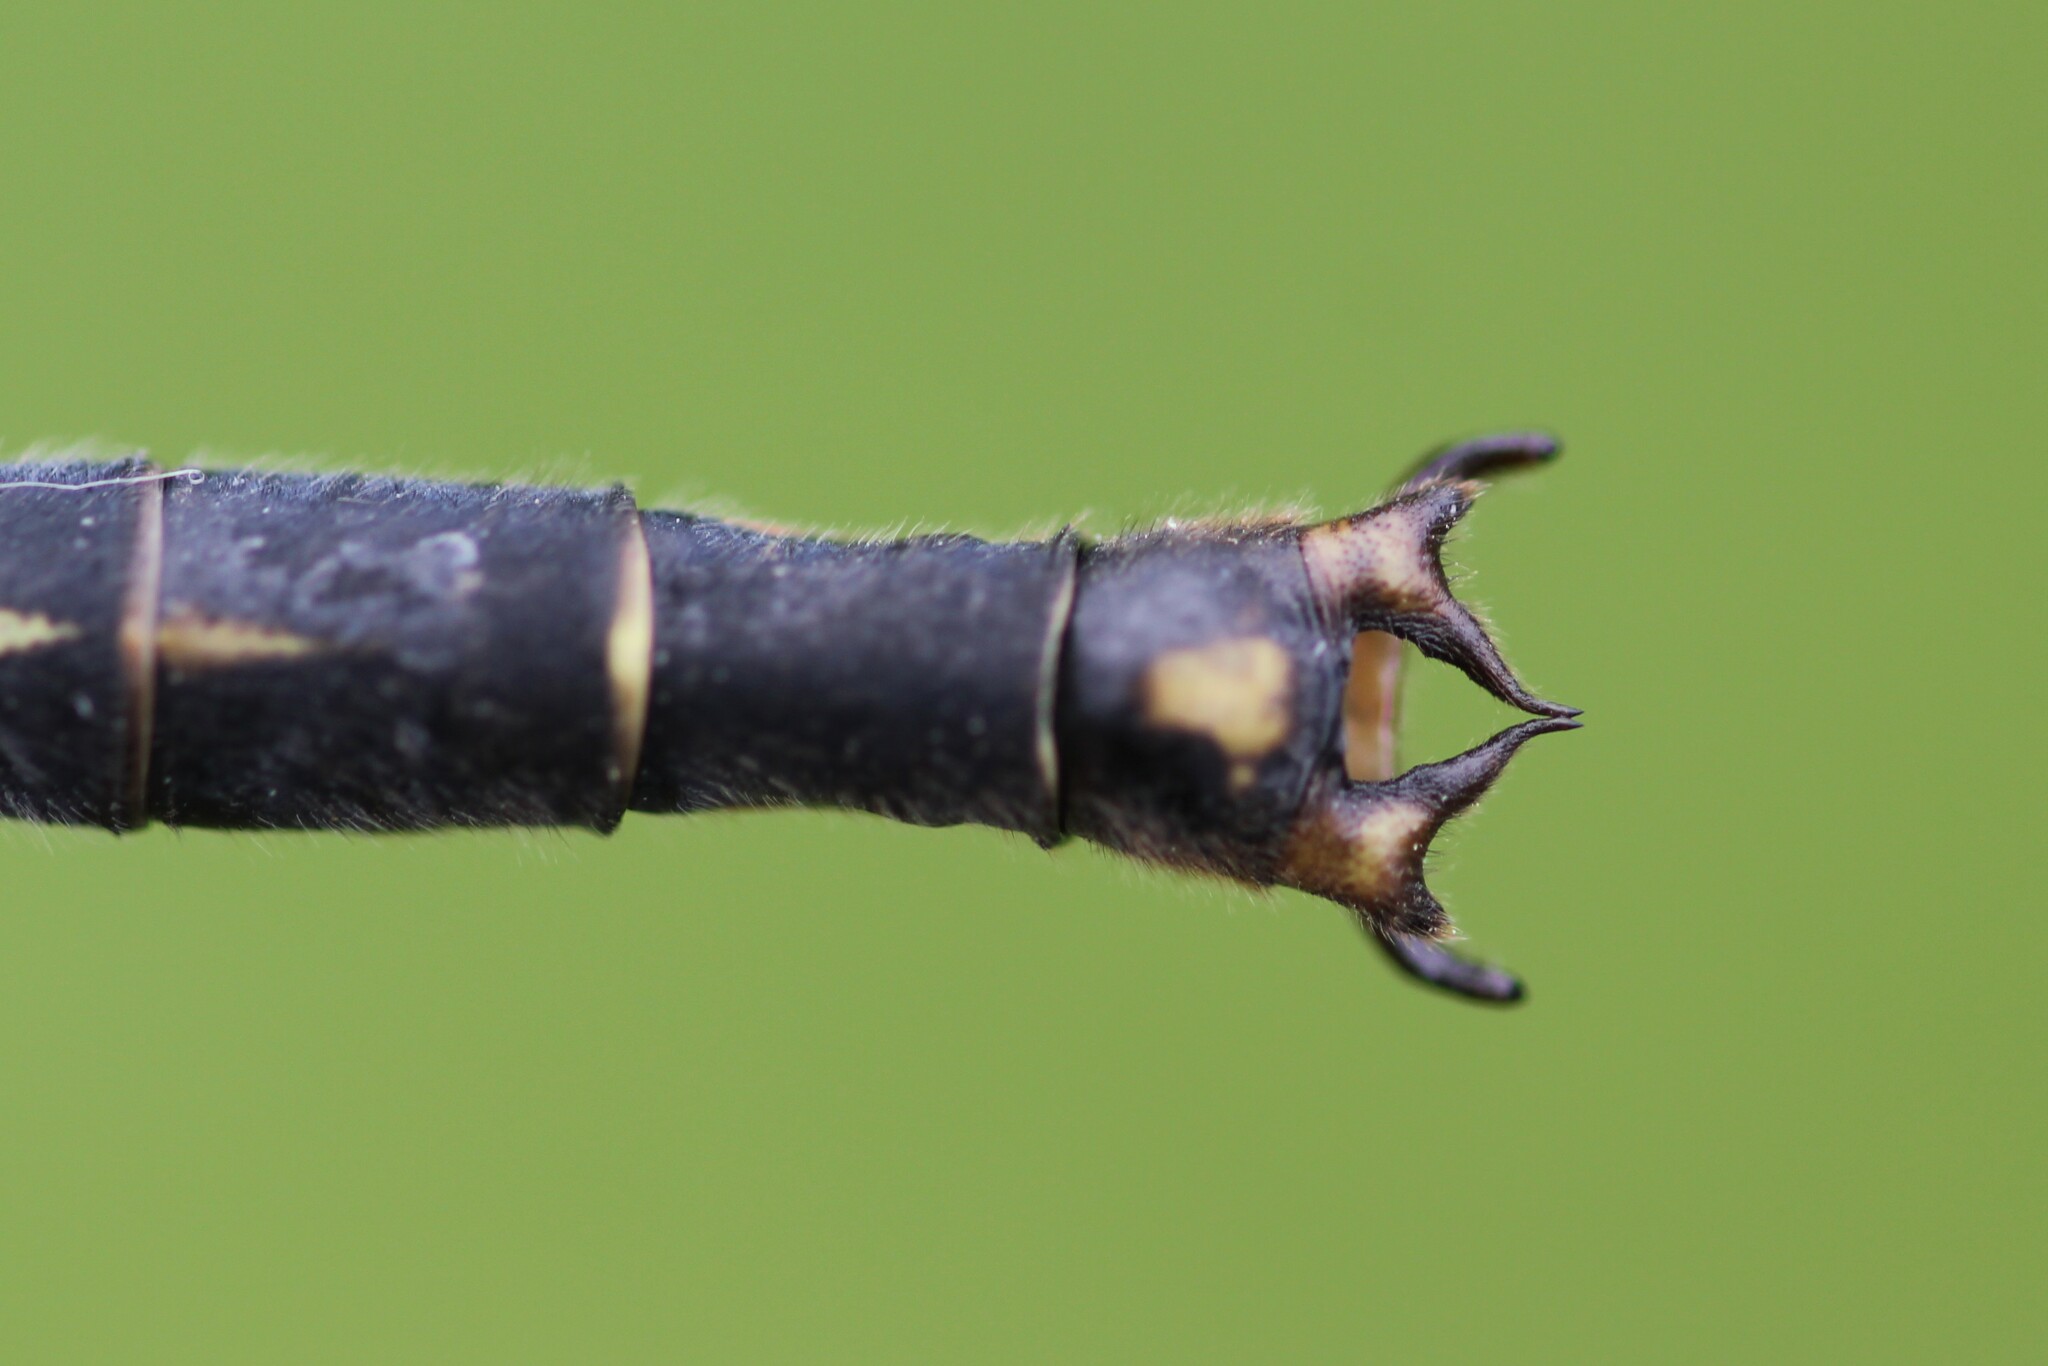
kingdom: Animalia
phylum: Arthropoda
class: Insecta
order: Odonata
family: Gomphidae
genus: Arigomphus
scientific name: Arigomphus cornutus
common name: Horned clubtail
